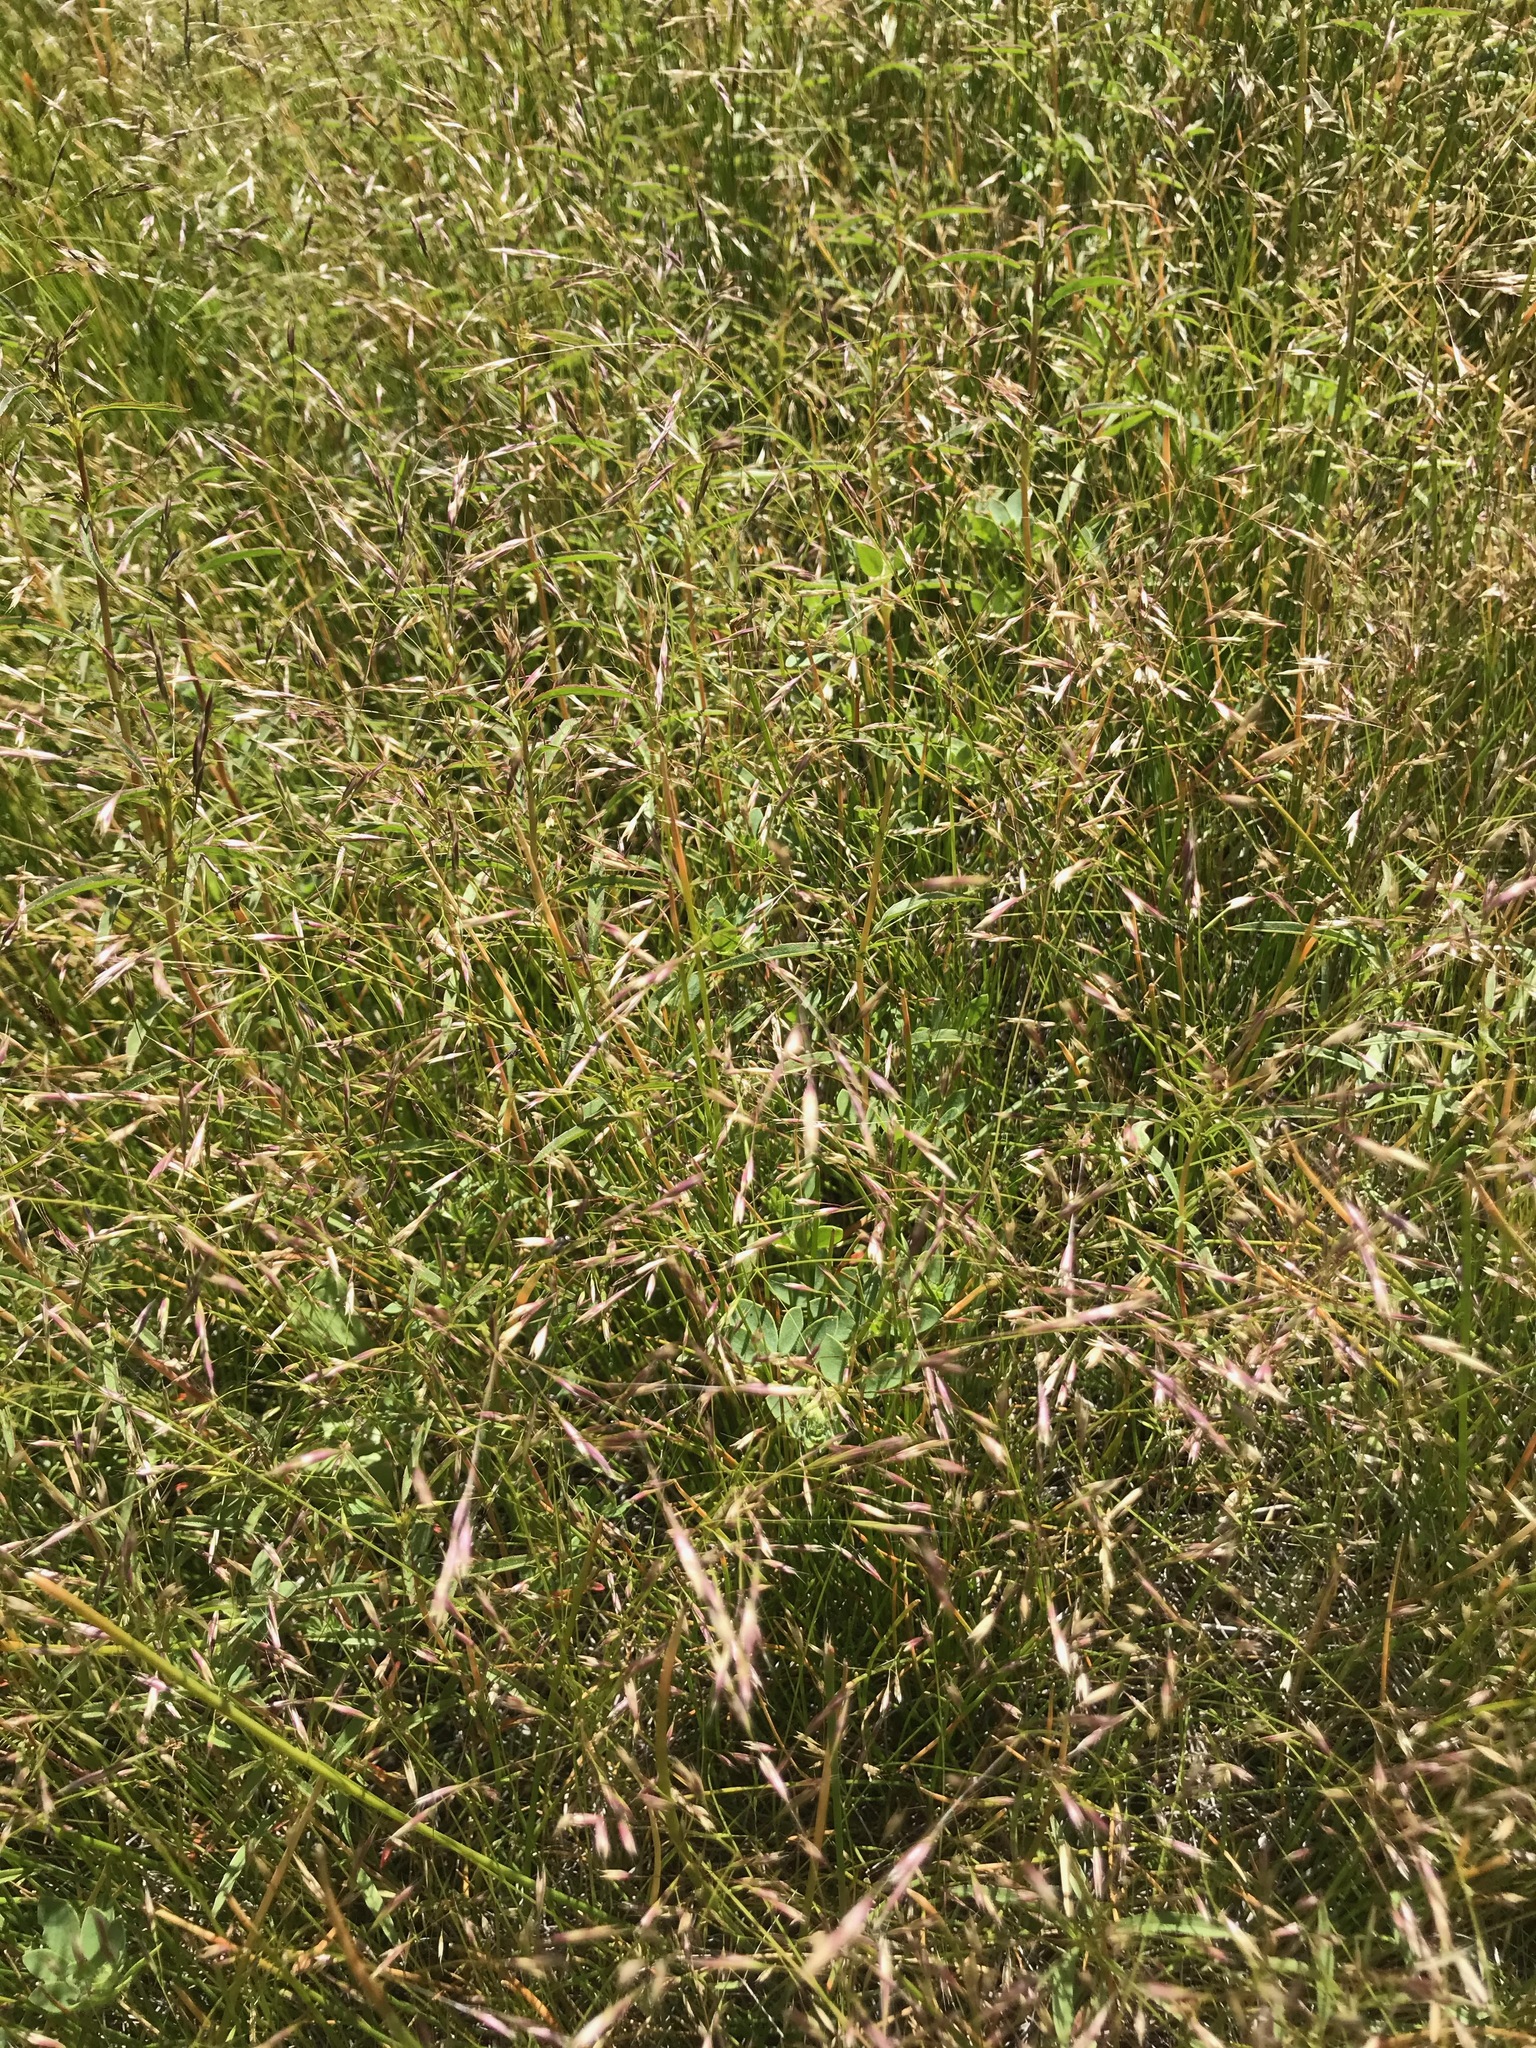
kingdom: Plantae
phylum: Tracheophyta
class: Liliopsida
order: Poales
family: Poaceae
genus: Deschampsia
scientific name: Deschampsia danthonioides
